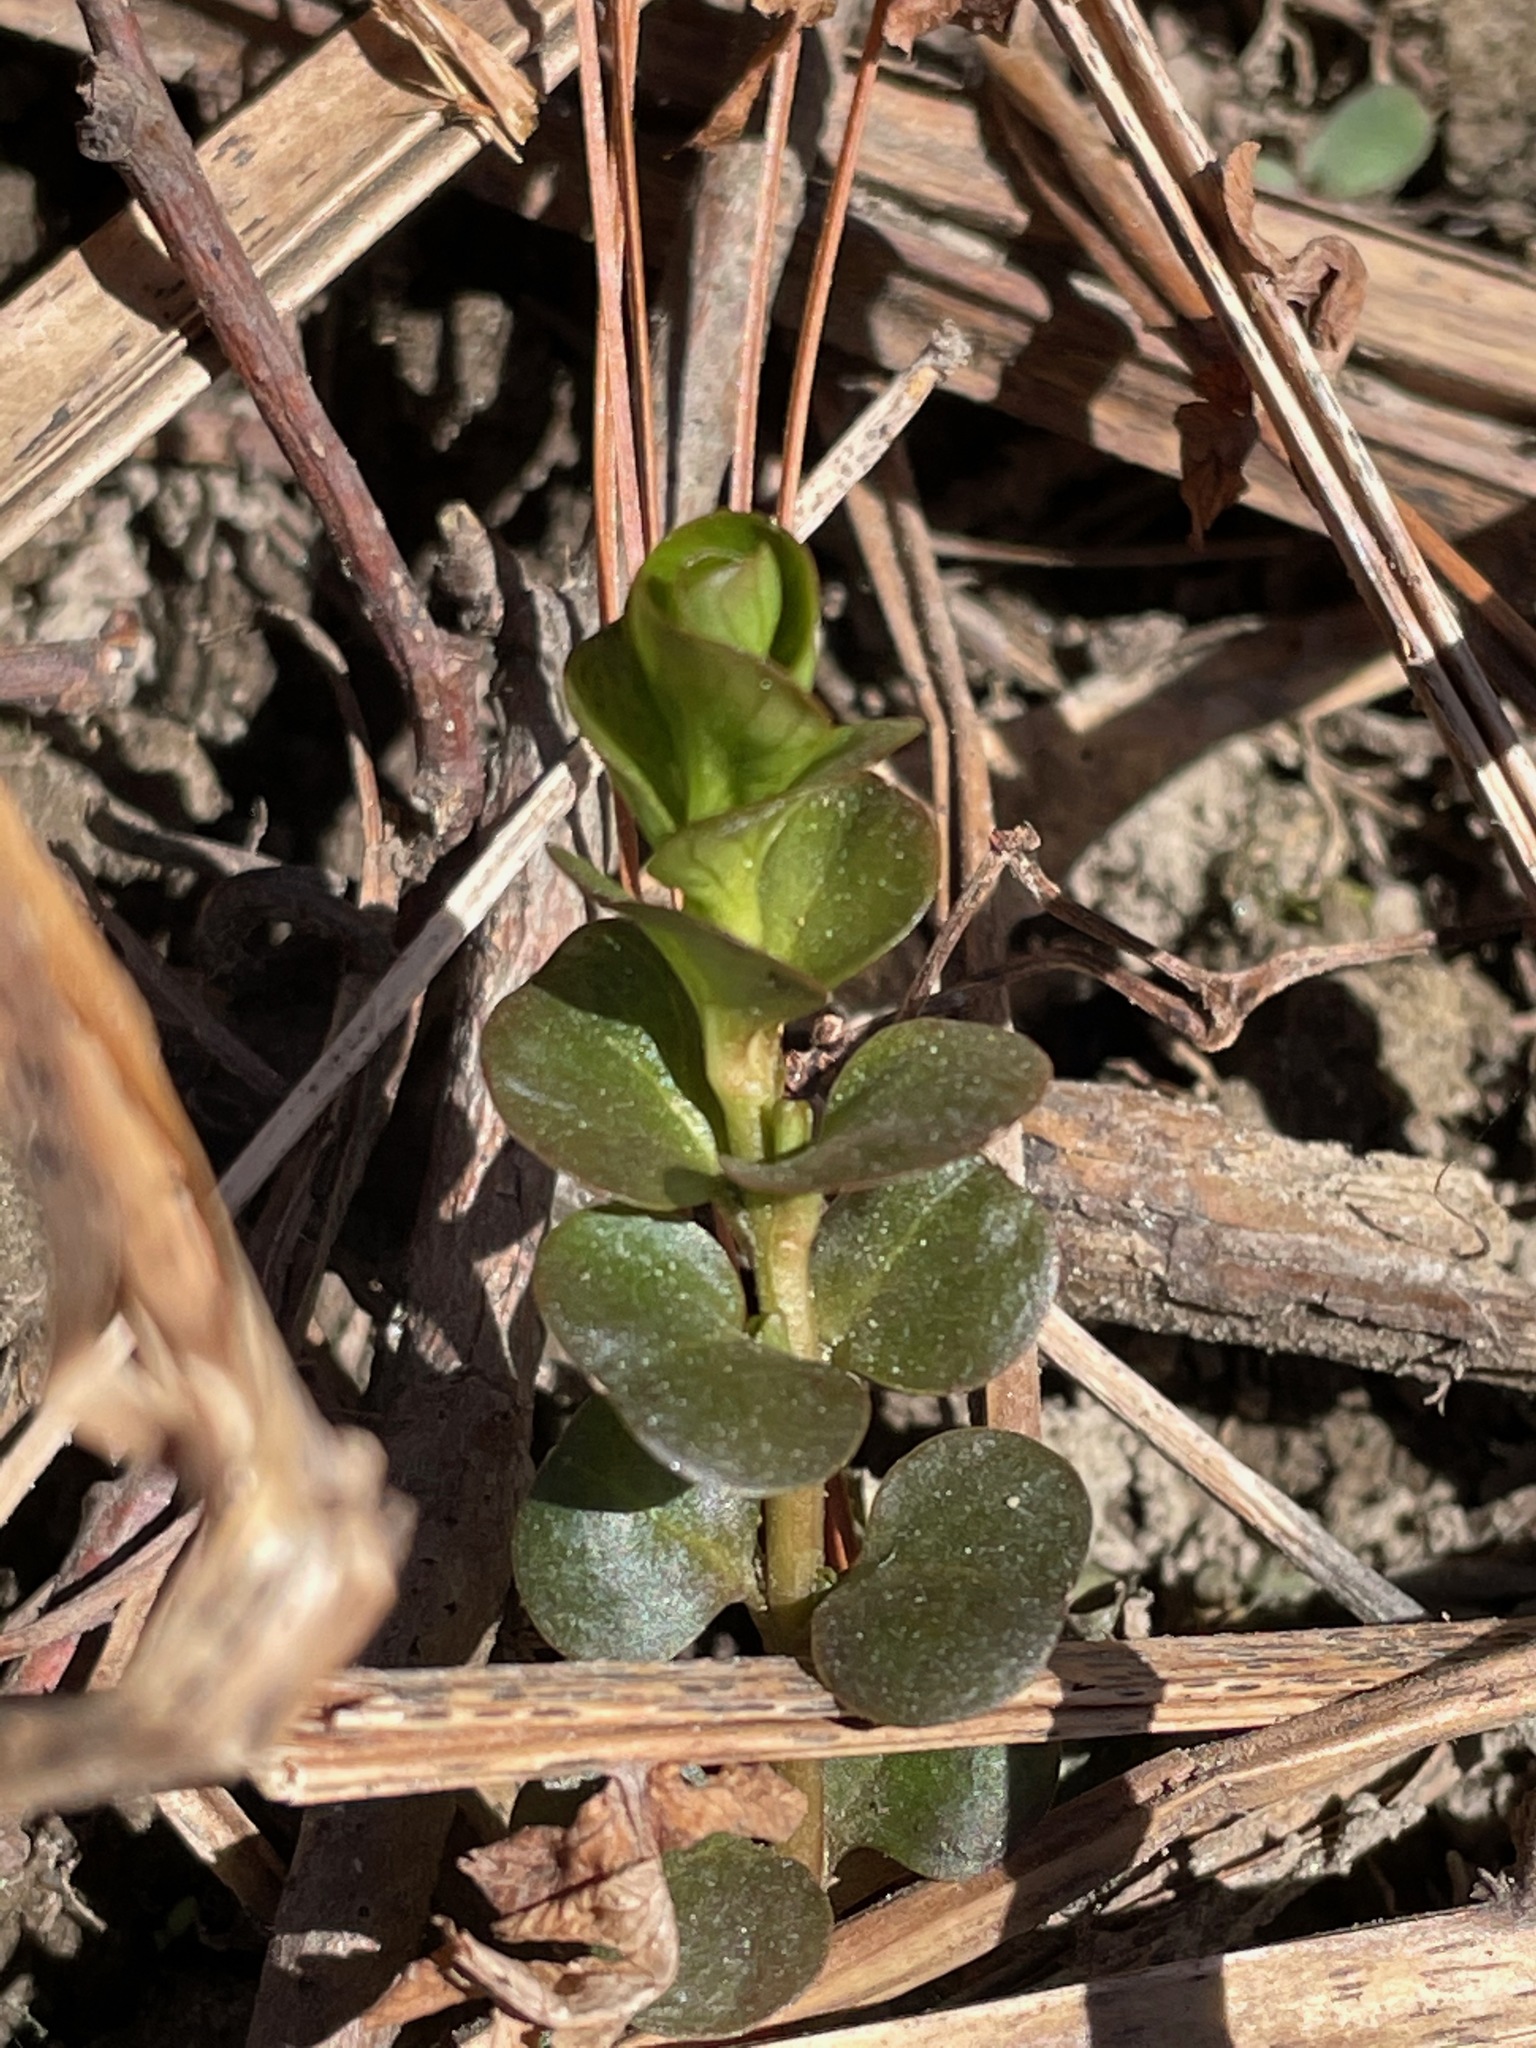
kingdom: Plantae
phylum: Tracheophyta
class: Magnoliopsida
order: Ericales
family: Primulaceae
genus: Lysimachia
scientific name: Lysimachia nummularia
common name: Moneywort
